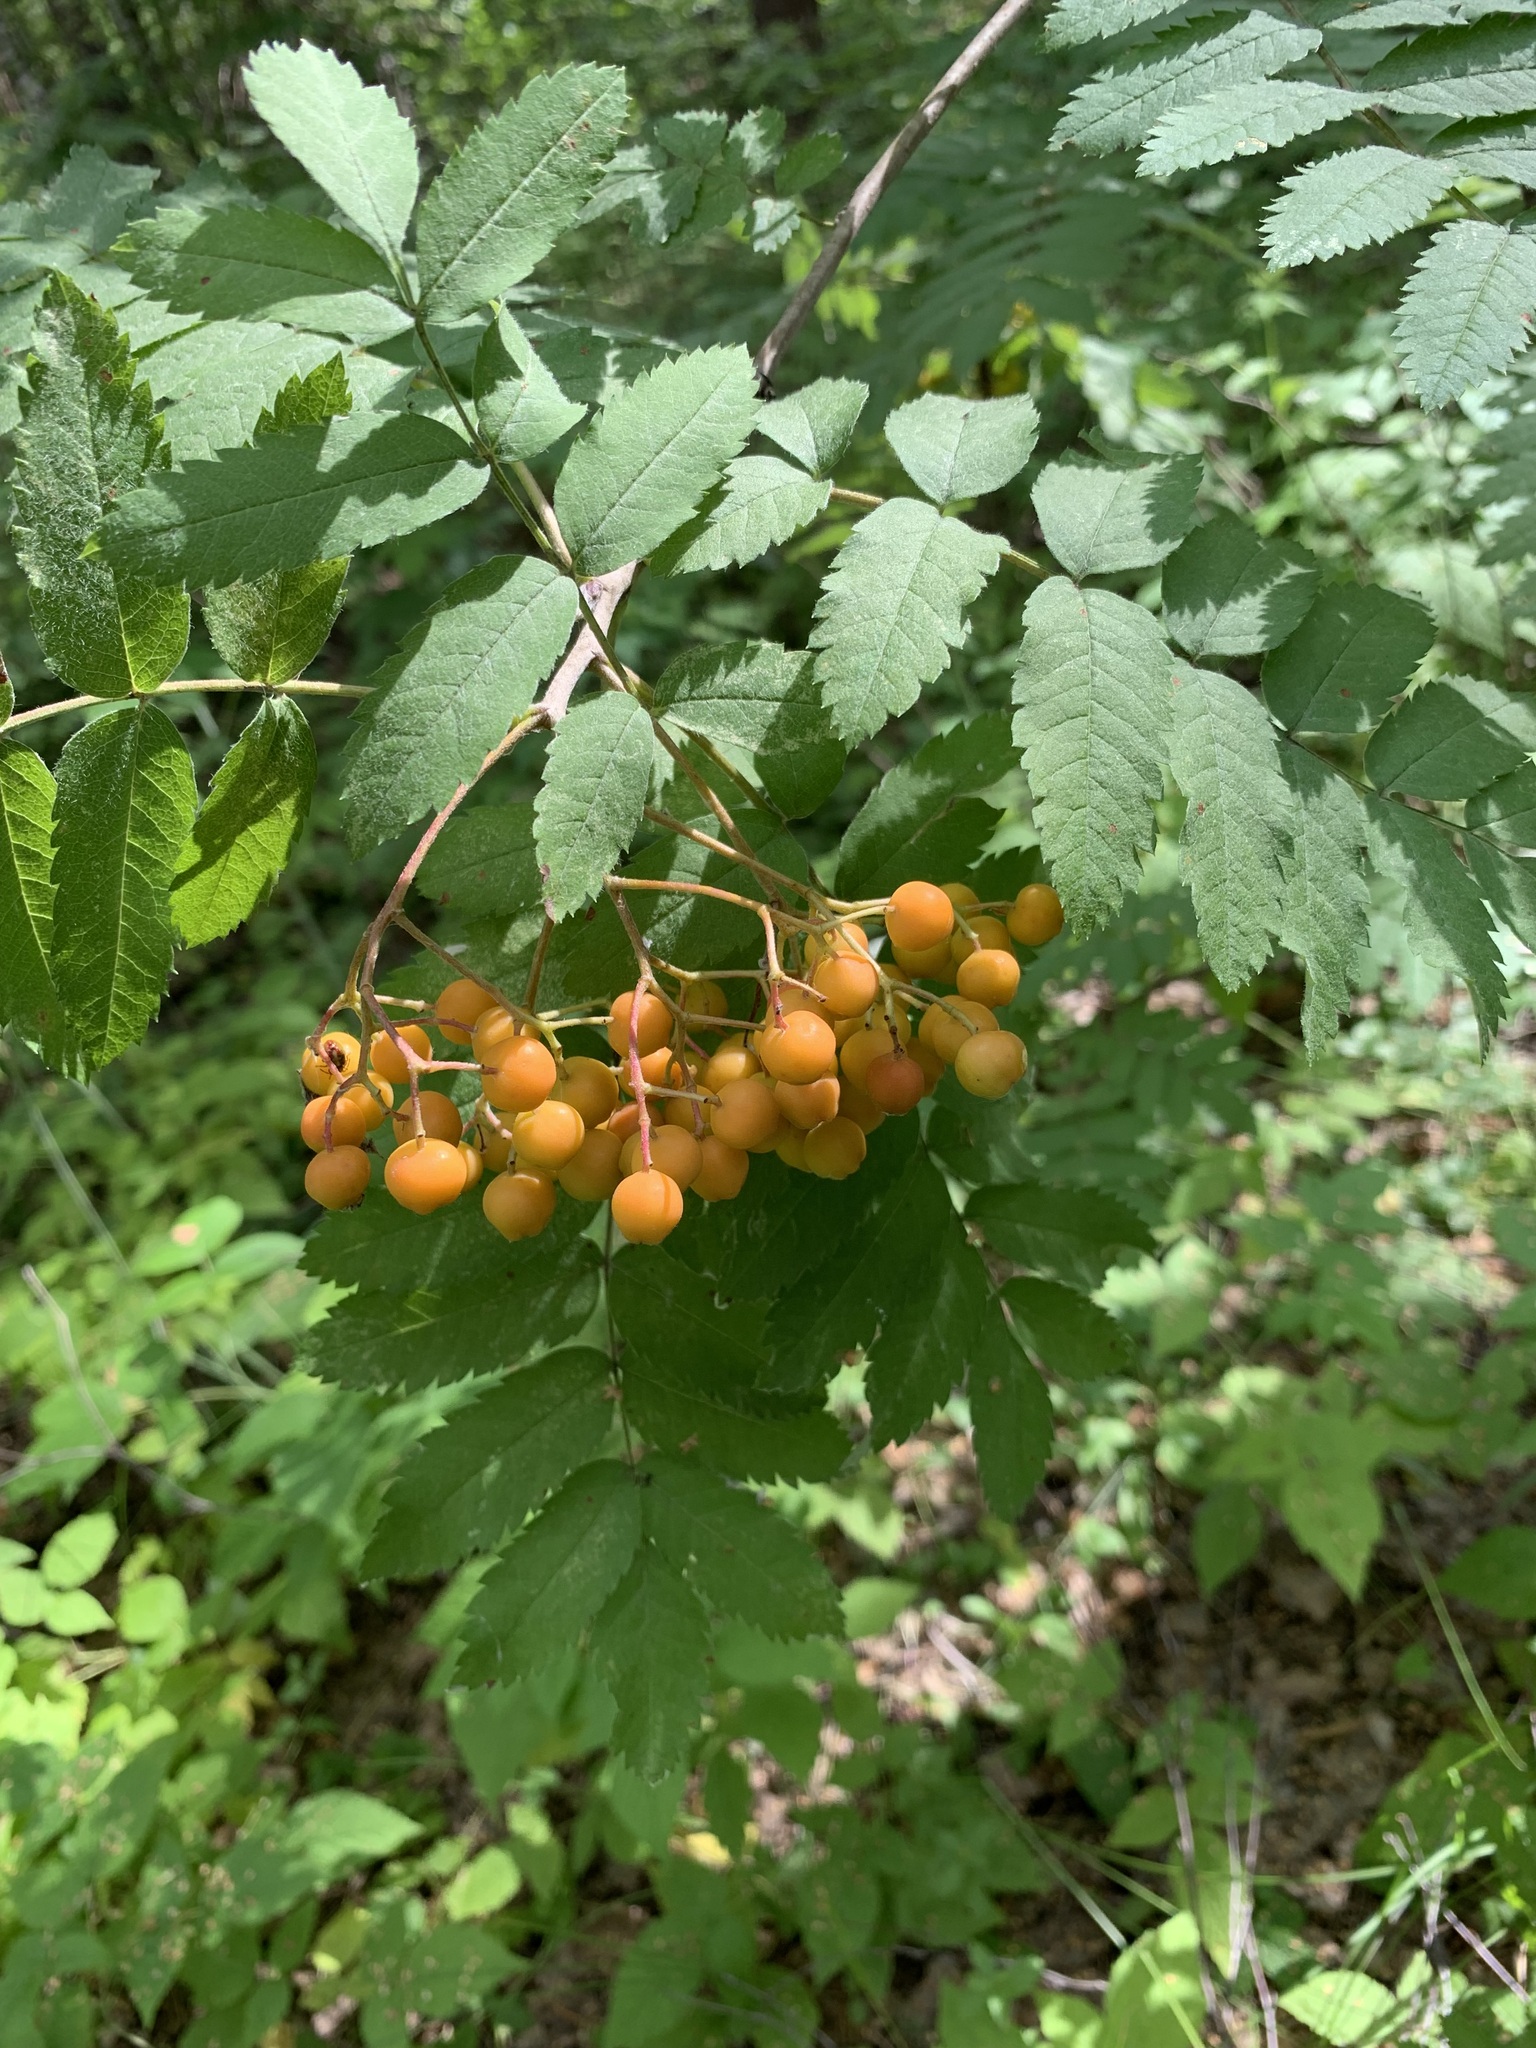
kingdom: Plantae
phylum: Tracheophyta
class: Magnoliopsida
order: Rosales
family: Rosaceae
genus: Sorbus
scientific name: Sorbus aucuparia
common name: Rowan
